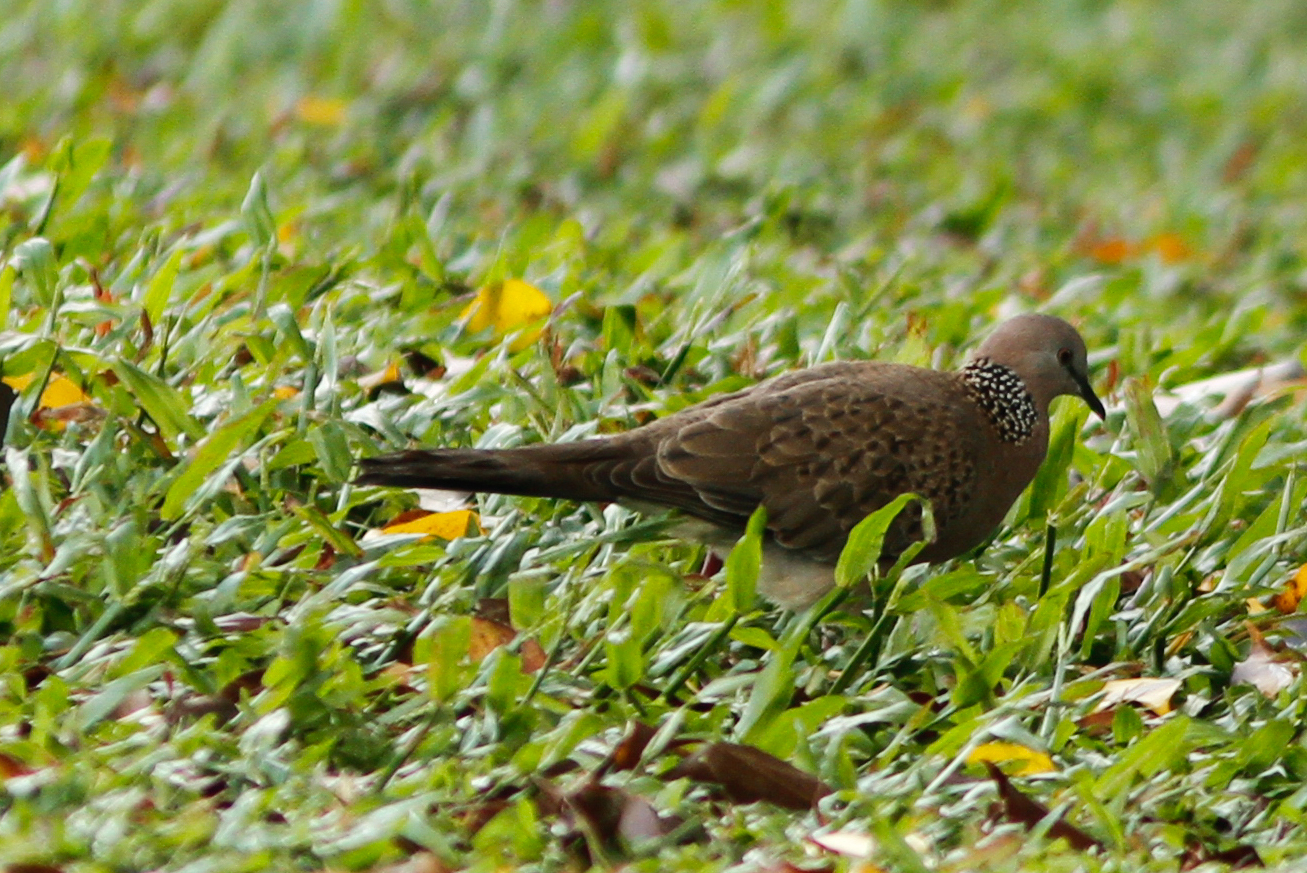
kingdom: Animalia
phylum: Chordata
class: Aves
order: Columbiformes
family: Columbidae
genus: Spilopelia
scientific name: Spilopelia chinensis
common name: Spotted dove
